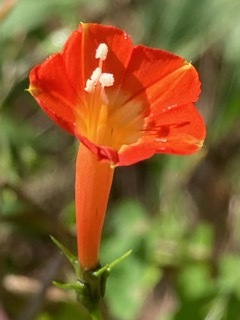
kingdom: Plantae
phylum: Tracheophyta
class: Magnoliopsida
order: Solanales
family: Convolvulaceae
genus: Ipomoea
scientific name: Ipomoea coccinea
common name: Red morning-glory
